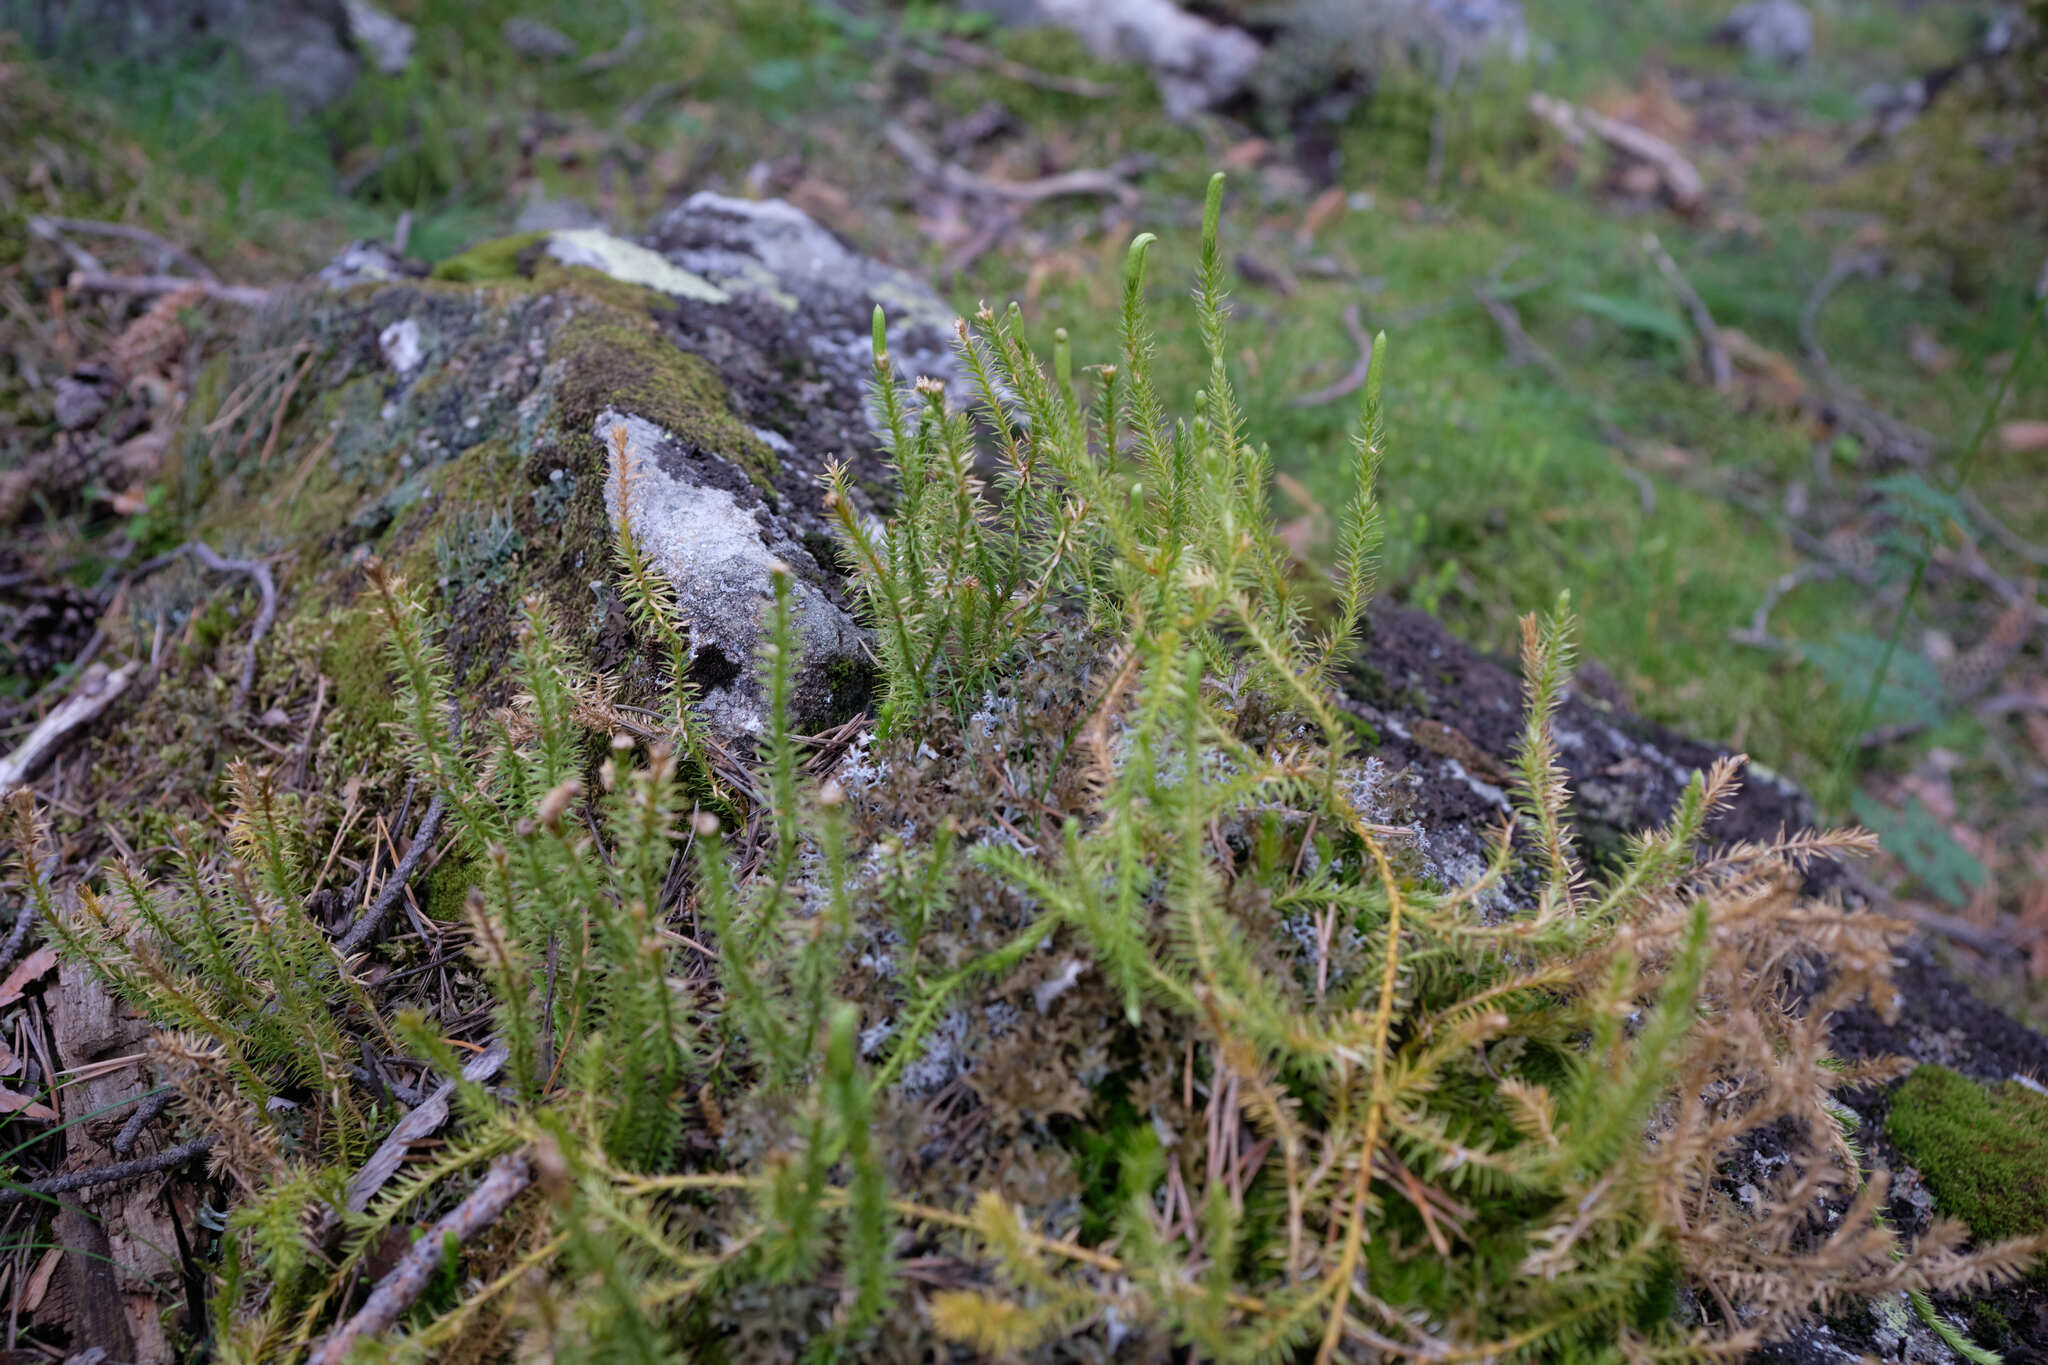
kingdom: Plantae
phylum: Tracheophyta
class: Lycopodiopsida
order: Lycopodiales
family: Lycopodiaceae
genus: Spinulum
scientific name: Spinulum annotinum
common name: Interrupted club-moss
